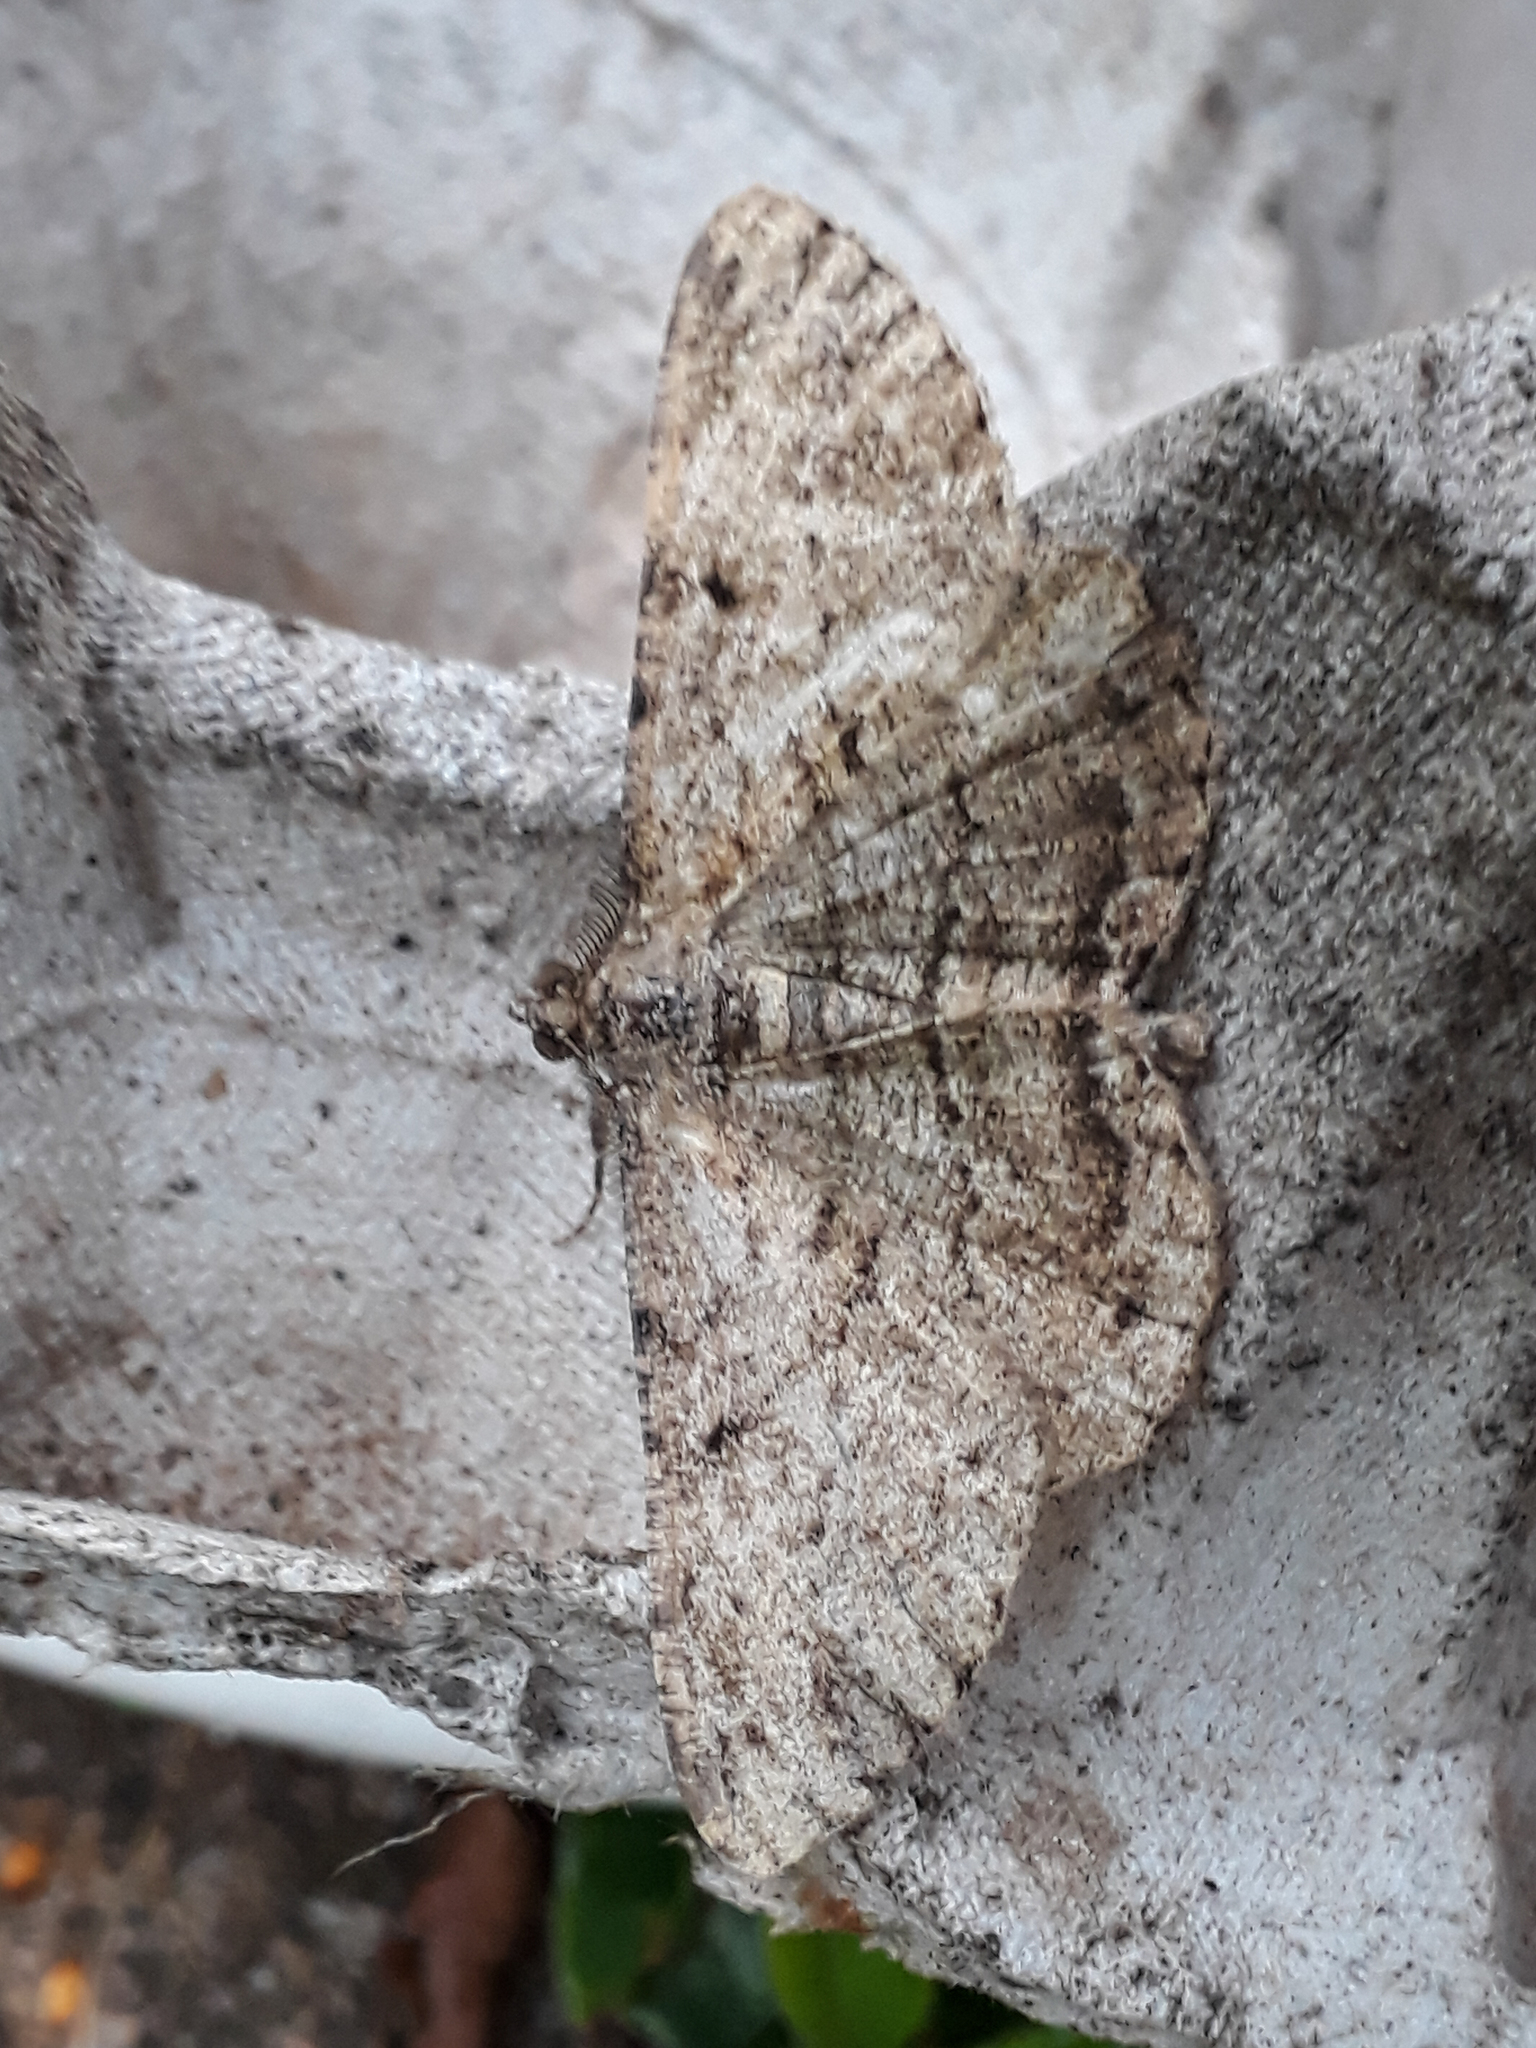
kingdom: Animalia
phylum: Arthropoda
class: Insecta
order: Lepidoptera
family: Geometridae
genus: Peribatodes
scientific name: Peribatodes rhomboidaria
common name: Willow beauty
